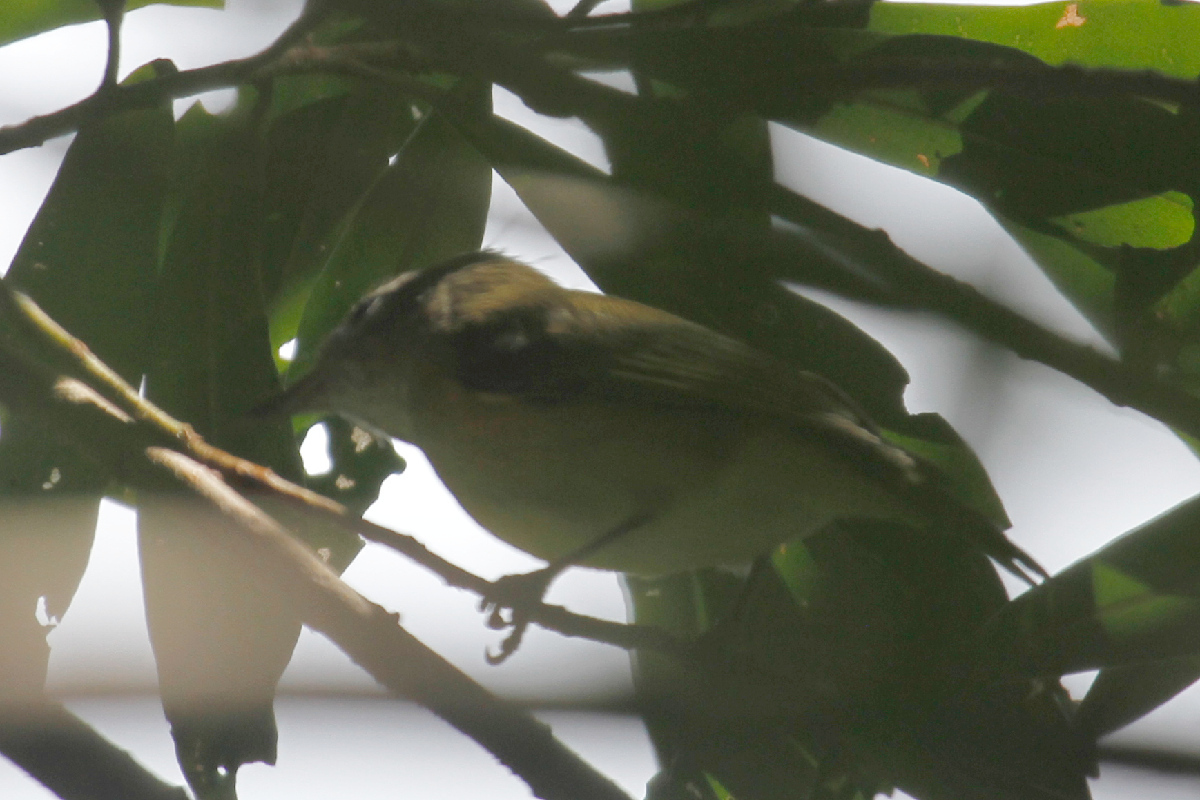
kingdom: Animalia
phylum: Chordata
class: Aves
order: Passeriformes
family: Vireonidae
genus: Hylophilus
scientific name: Hylophilus decurtatus
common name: Lesser greenlet
